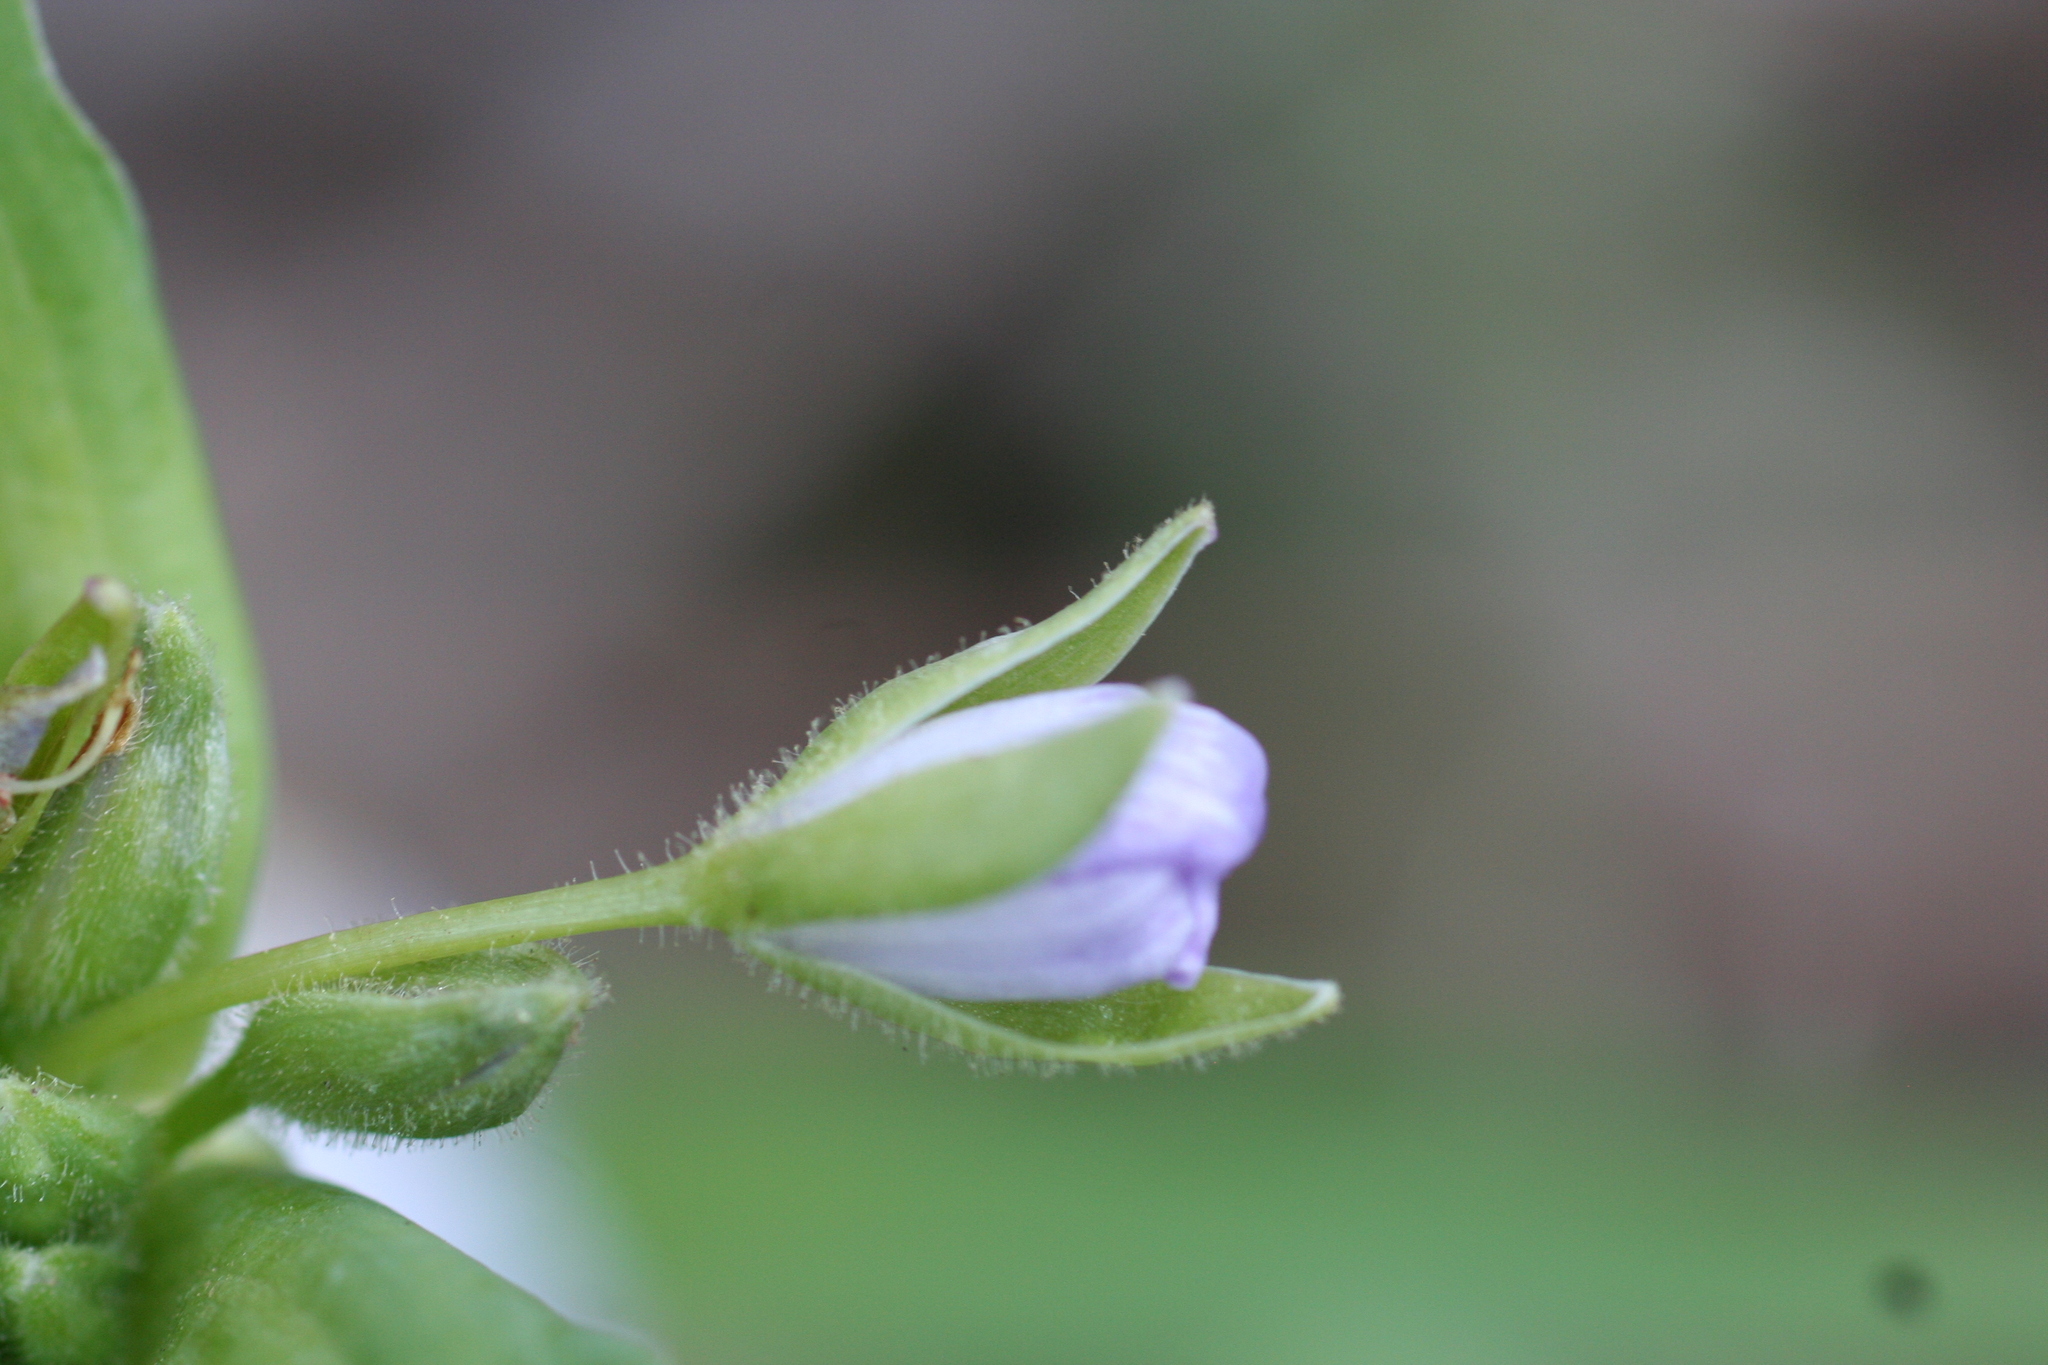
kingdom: Plantae
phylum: Tracheophyta
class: Liliopsida
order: Commelinales
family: Commelinaceae
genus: Tradescantia
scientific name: Tradescantia ozarkana
